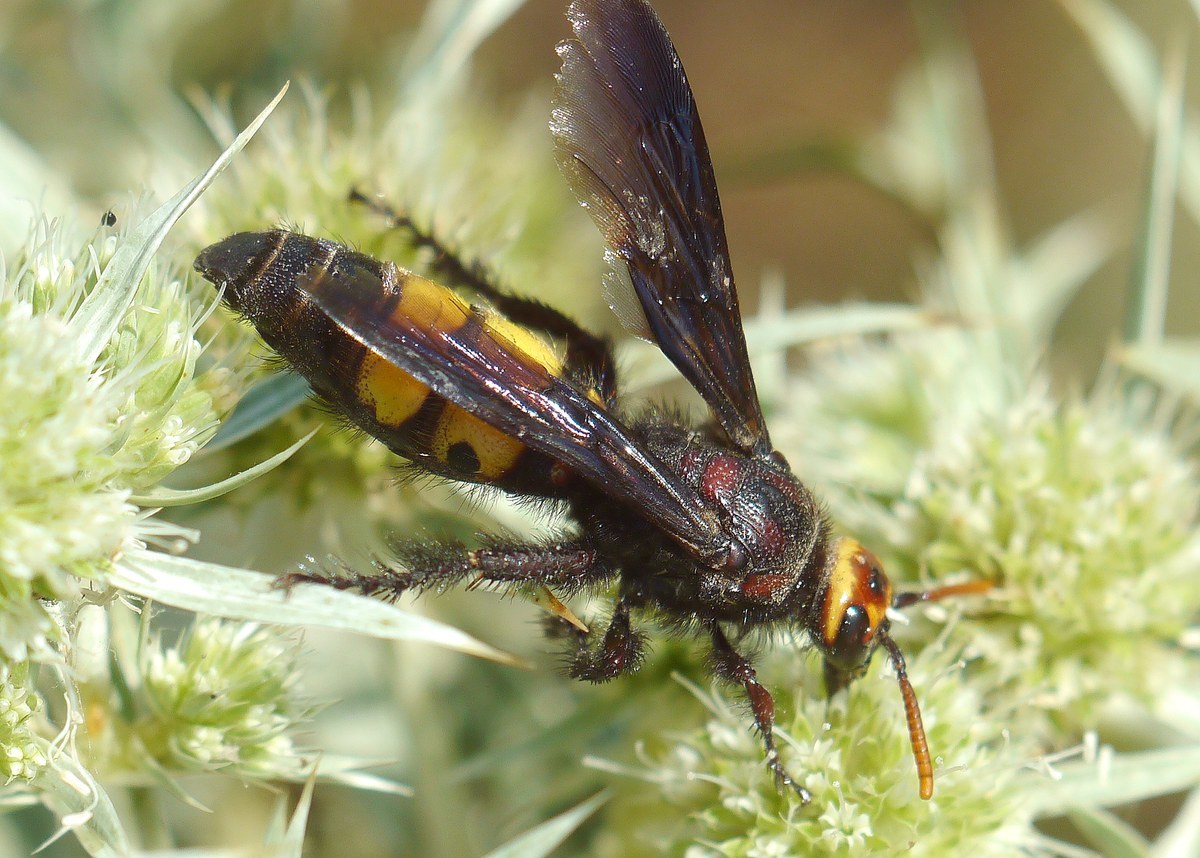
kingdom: Animalia
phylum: Arthropoda
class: Insecta
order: Hymenoptera
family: Vespidae
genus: Vespa
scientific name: Vespa galbula
